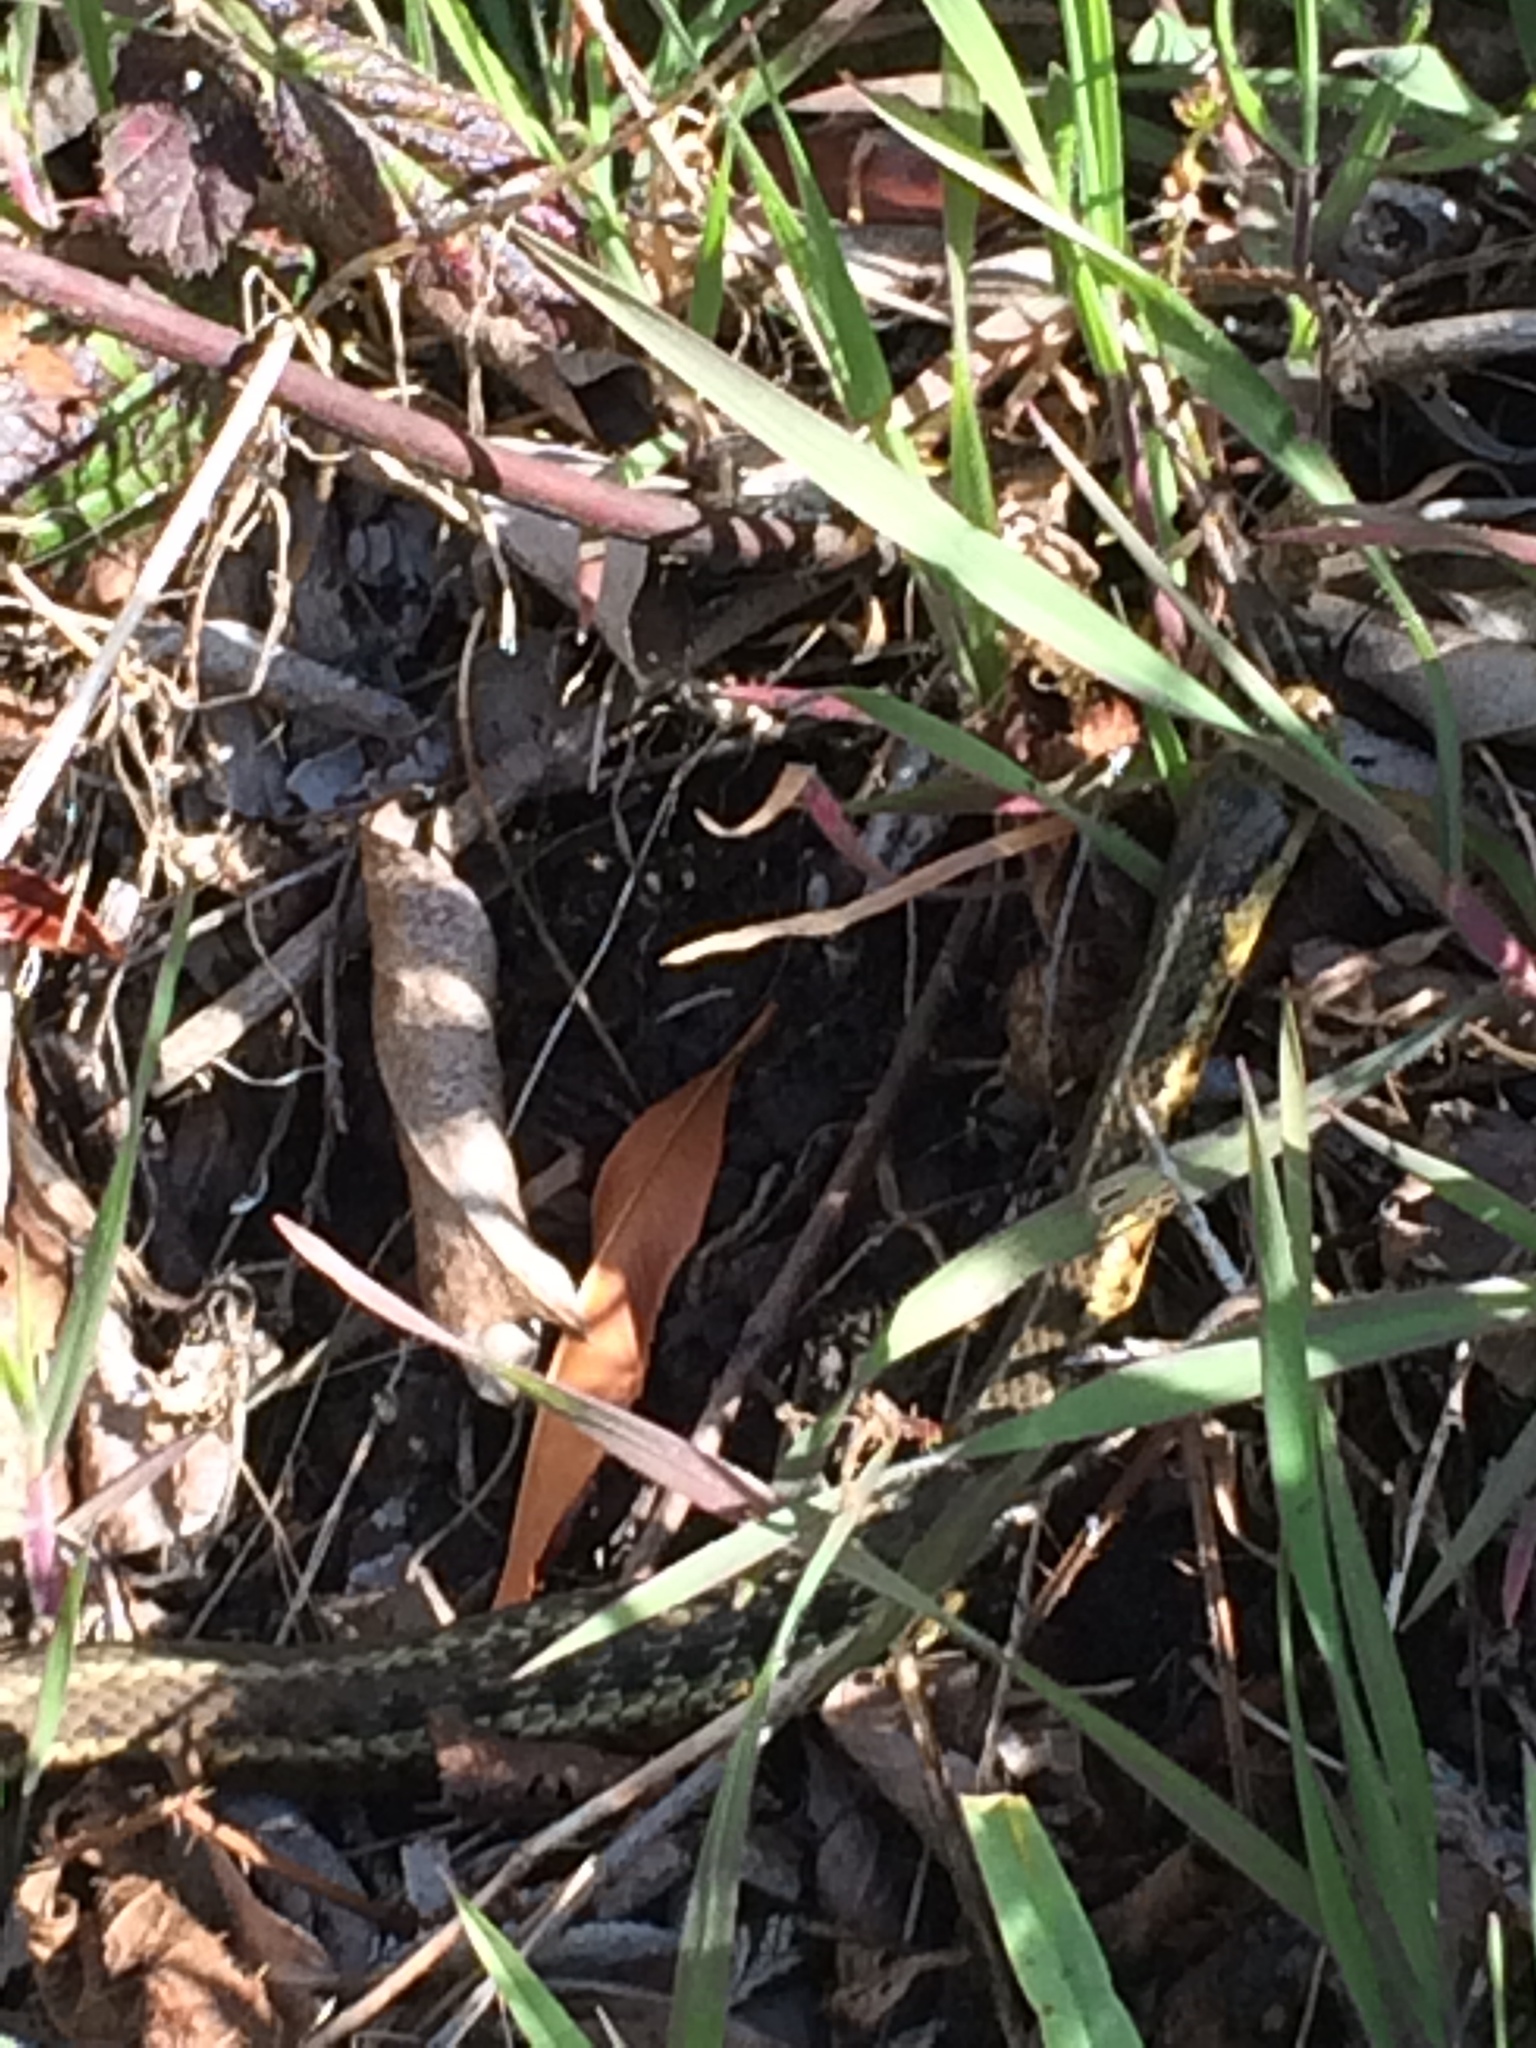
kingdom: Animalia
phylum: Chordata
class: Squamata
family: Colubridae
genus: Thamnophis
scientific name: Thamnophis elegans
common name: Western terrestrial garter snake
